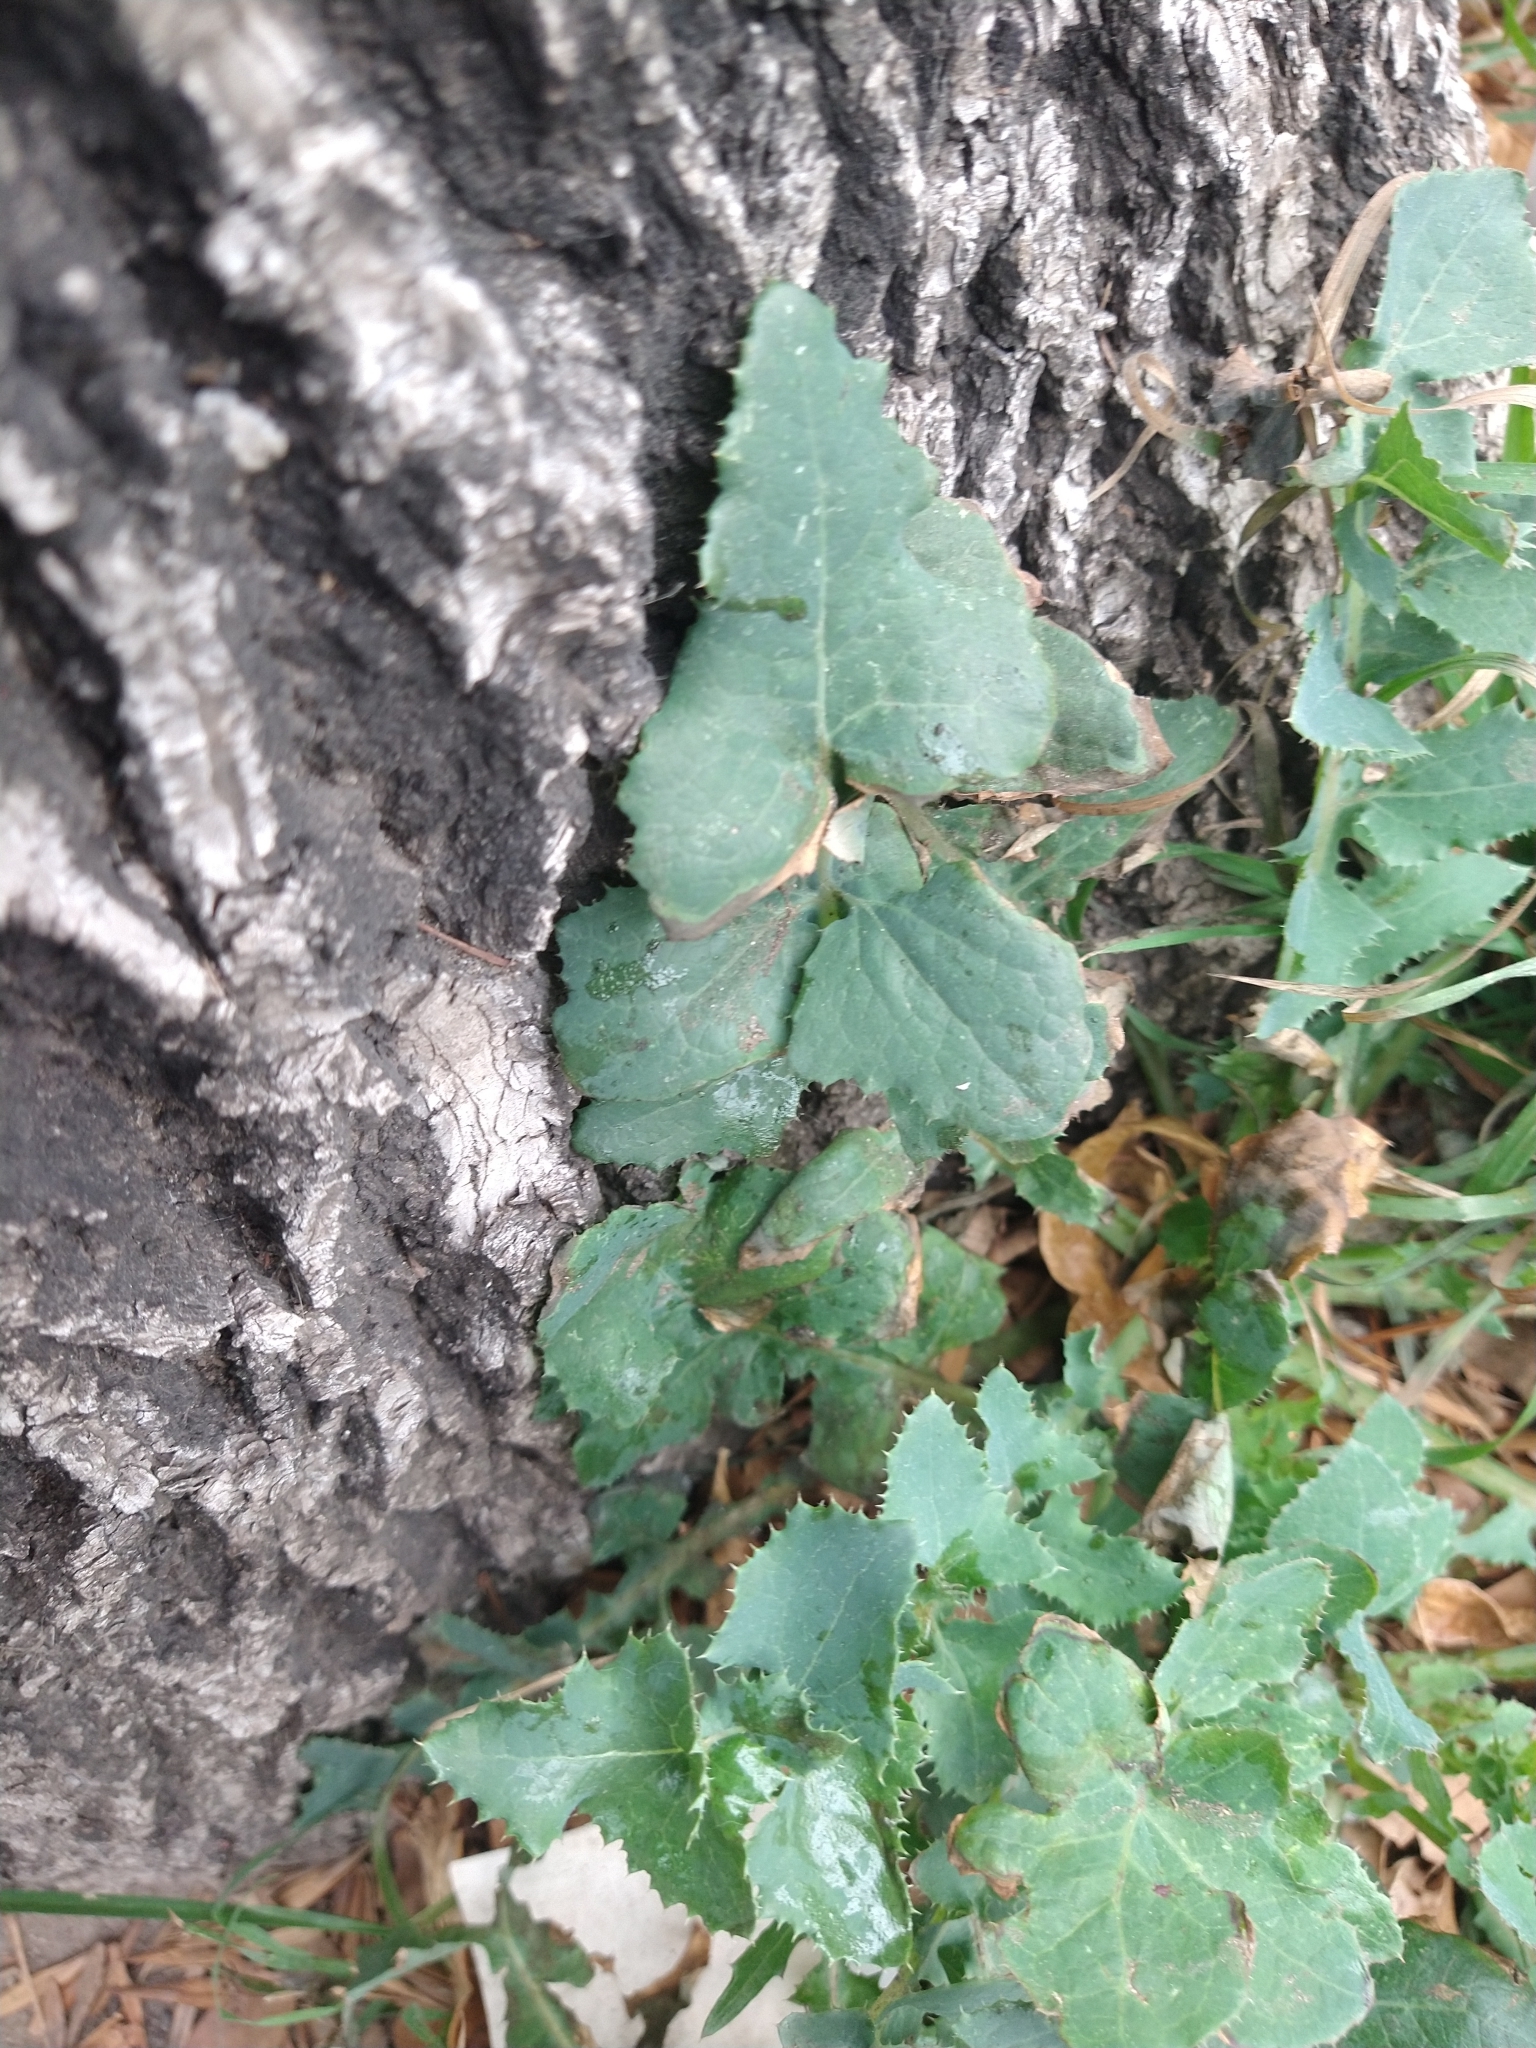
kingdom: Plantae
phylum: Tracheophyta
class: Magnoliopsida
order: Asterales
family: Asteraceae
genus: Sonchus
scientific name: Sonchus oleraceus
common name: Common sowthistle
